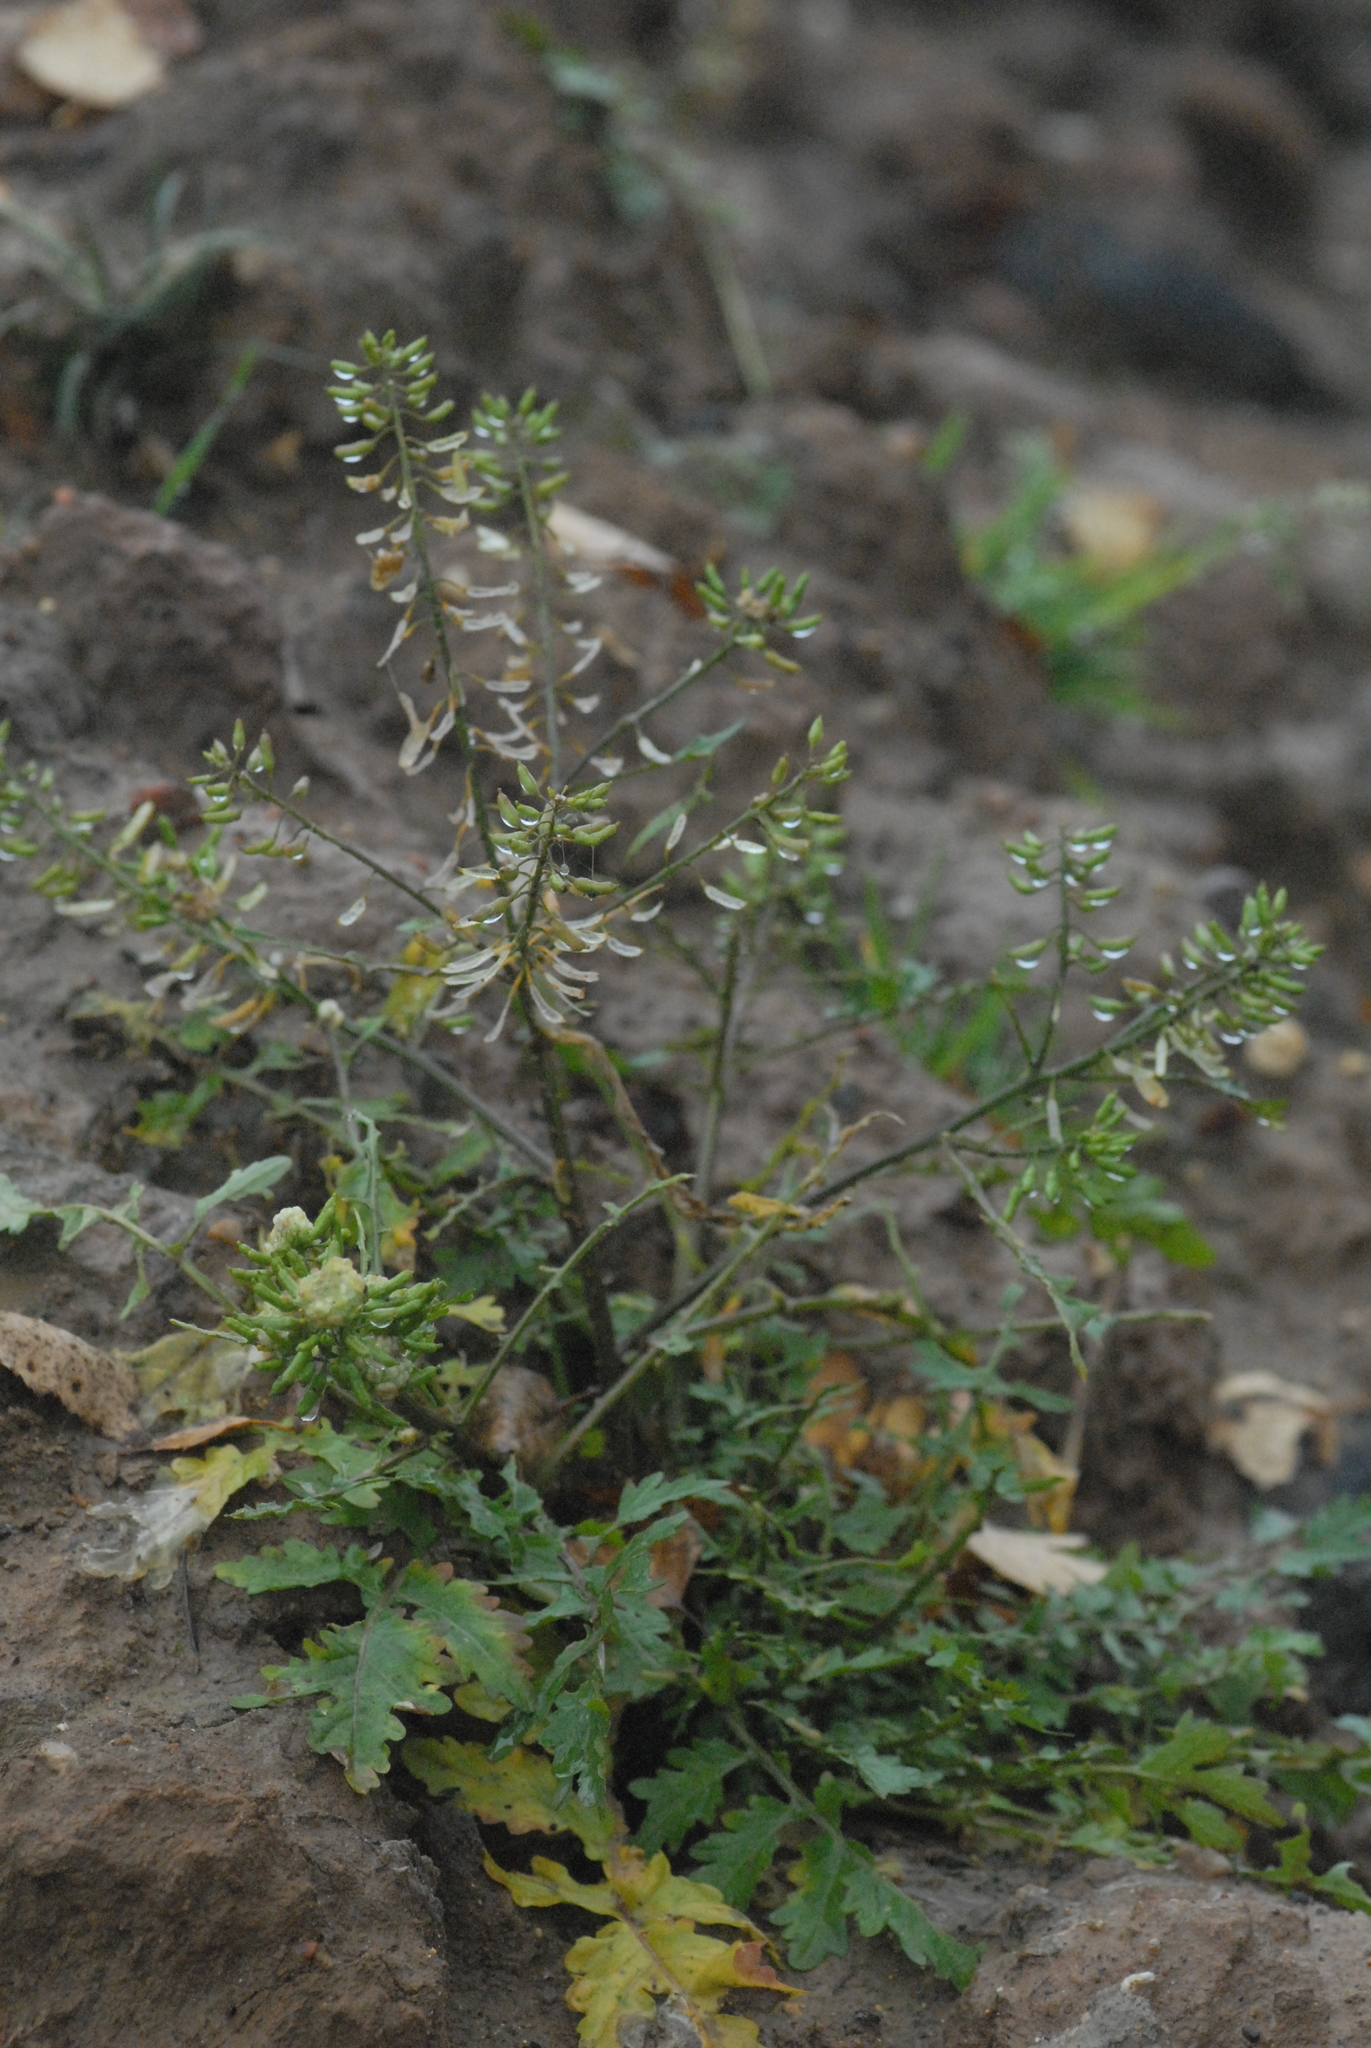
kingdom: Plantae
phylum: Tracheophyta
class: Magnoliopsida
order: Brassicales
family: Brassicaceae
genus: Rorippa
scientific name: Rorippa palustris
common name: Marsh yellow-cress
